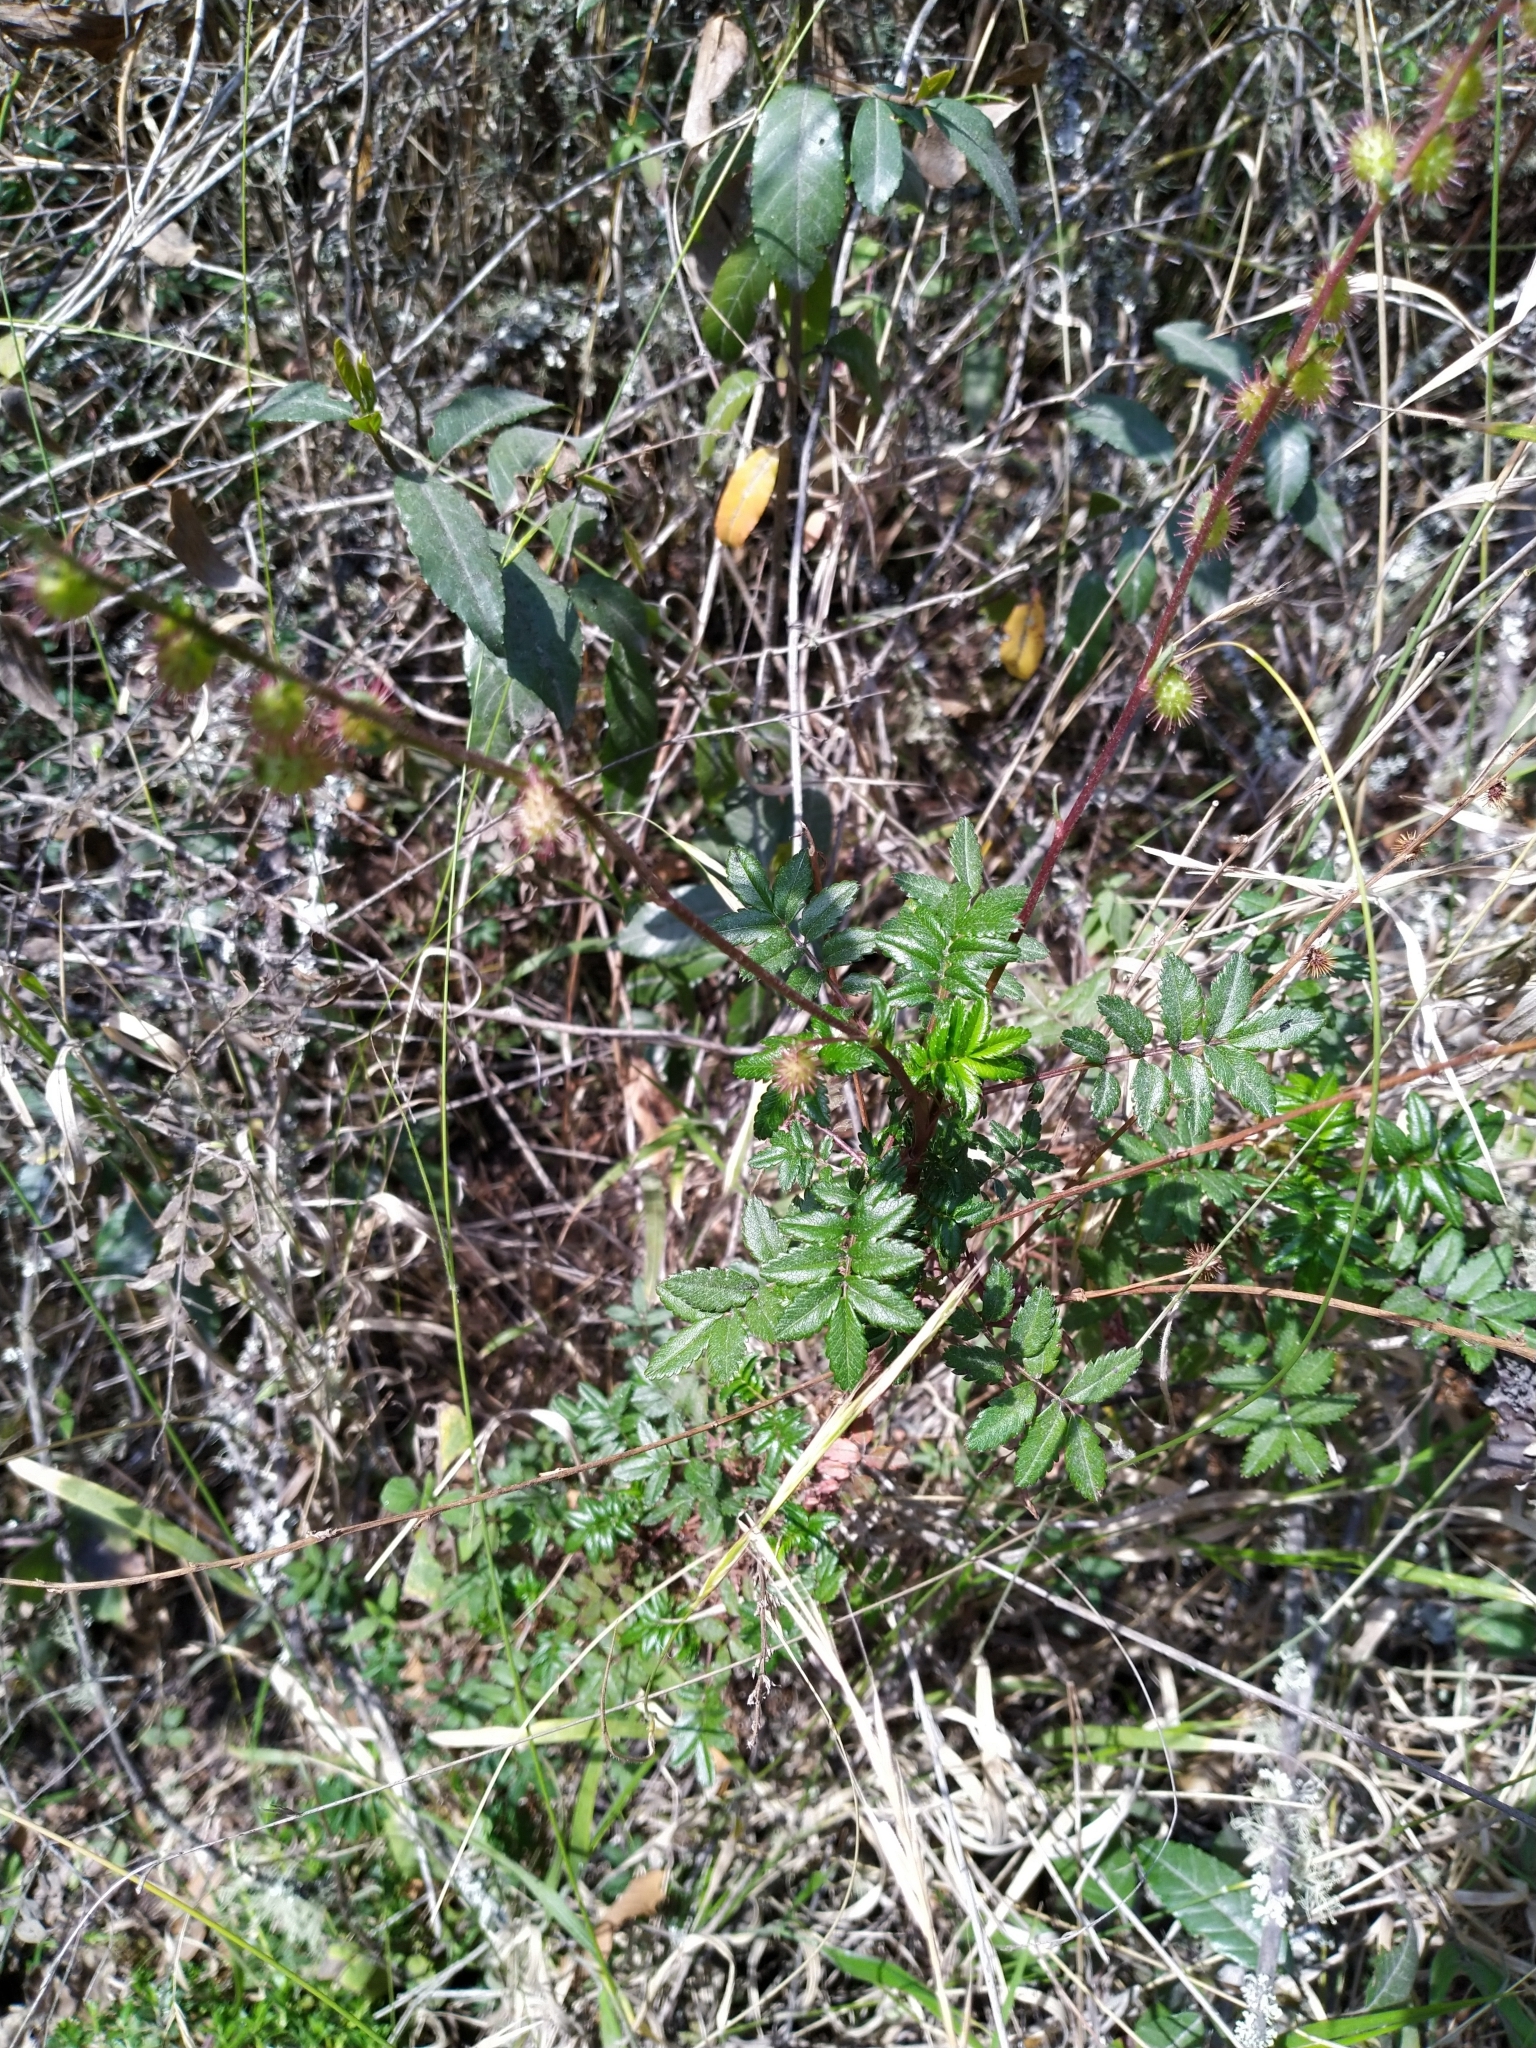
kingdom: Plantae
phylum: Tracheophyta
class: Magnoliopsida
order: Rosales
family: Rosaceae
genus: Acaena
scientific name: Acaena elongata
